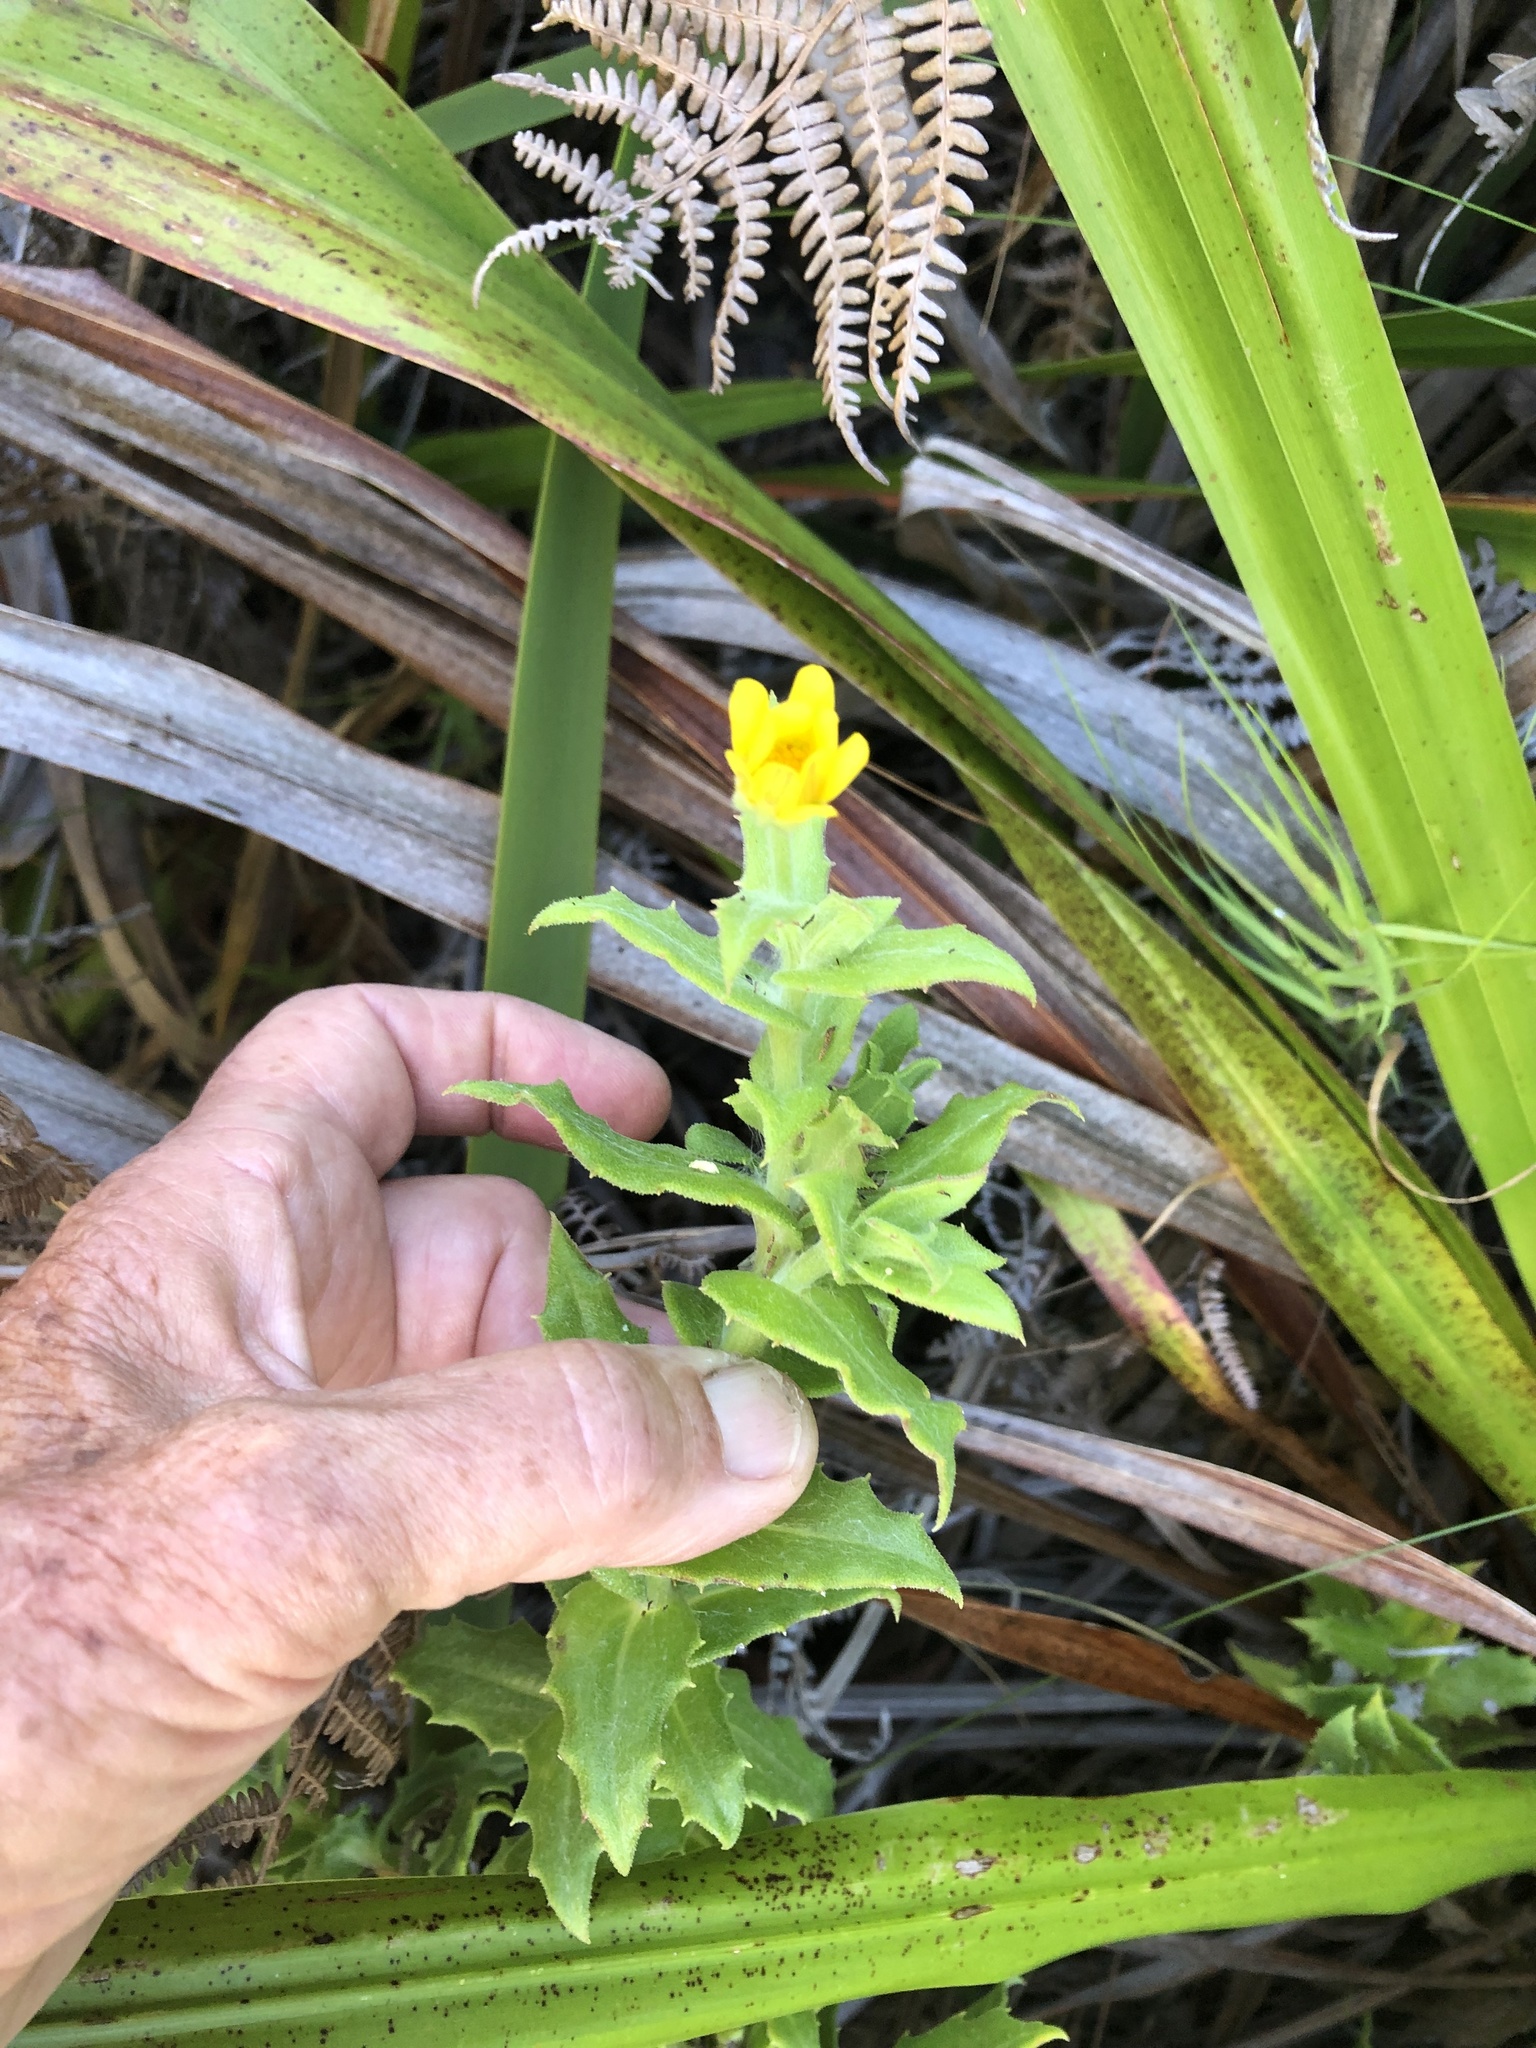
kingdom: Plantae
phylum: Tracheophyta
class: Magnoliopsida
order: Asterales
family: Asteraceae
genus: Osteospermum
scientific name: Osteospermum ilicifolium
